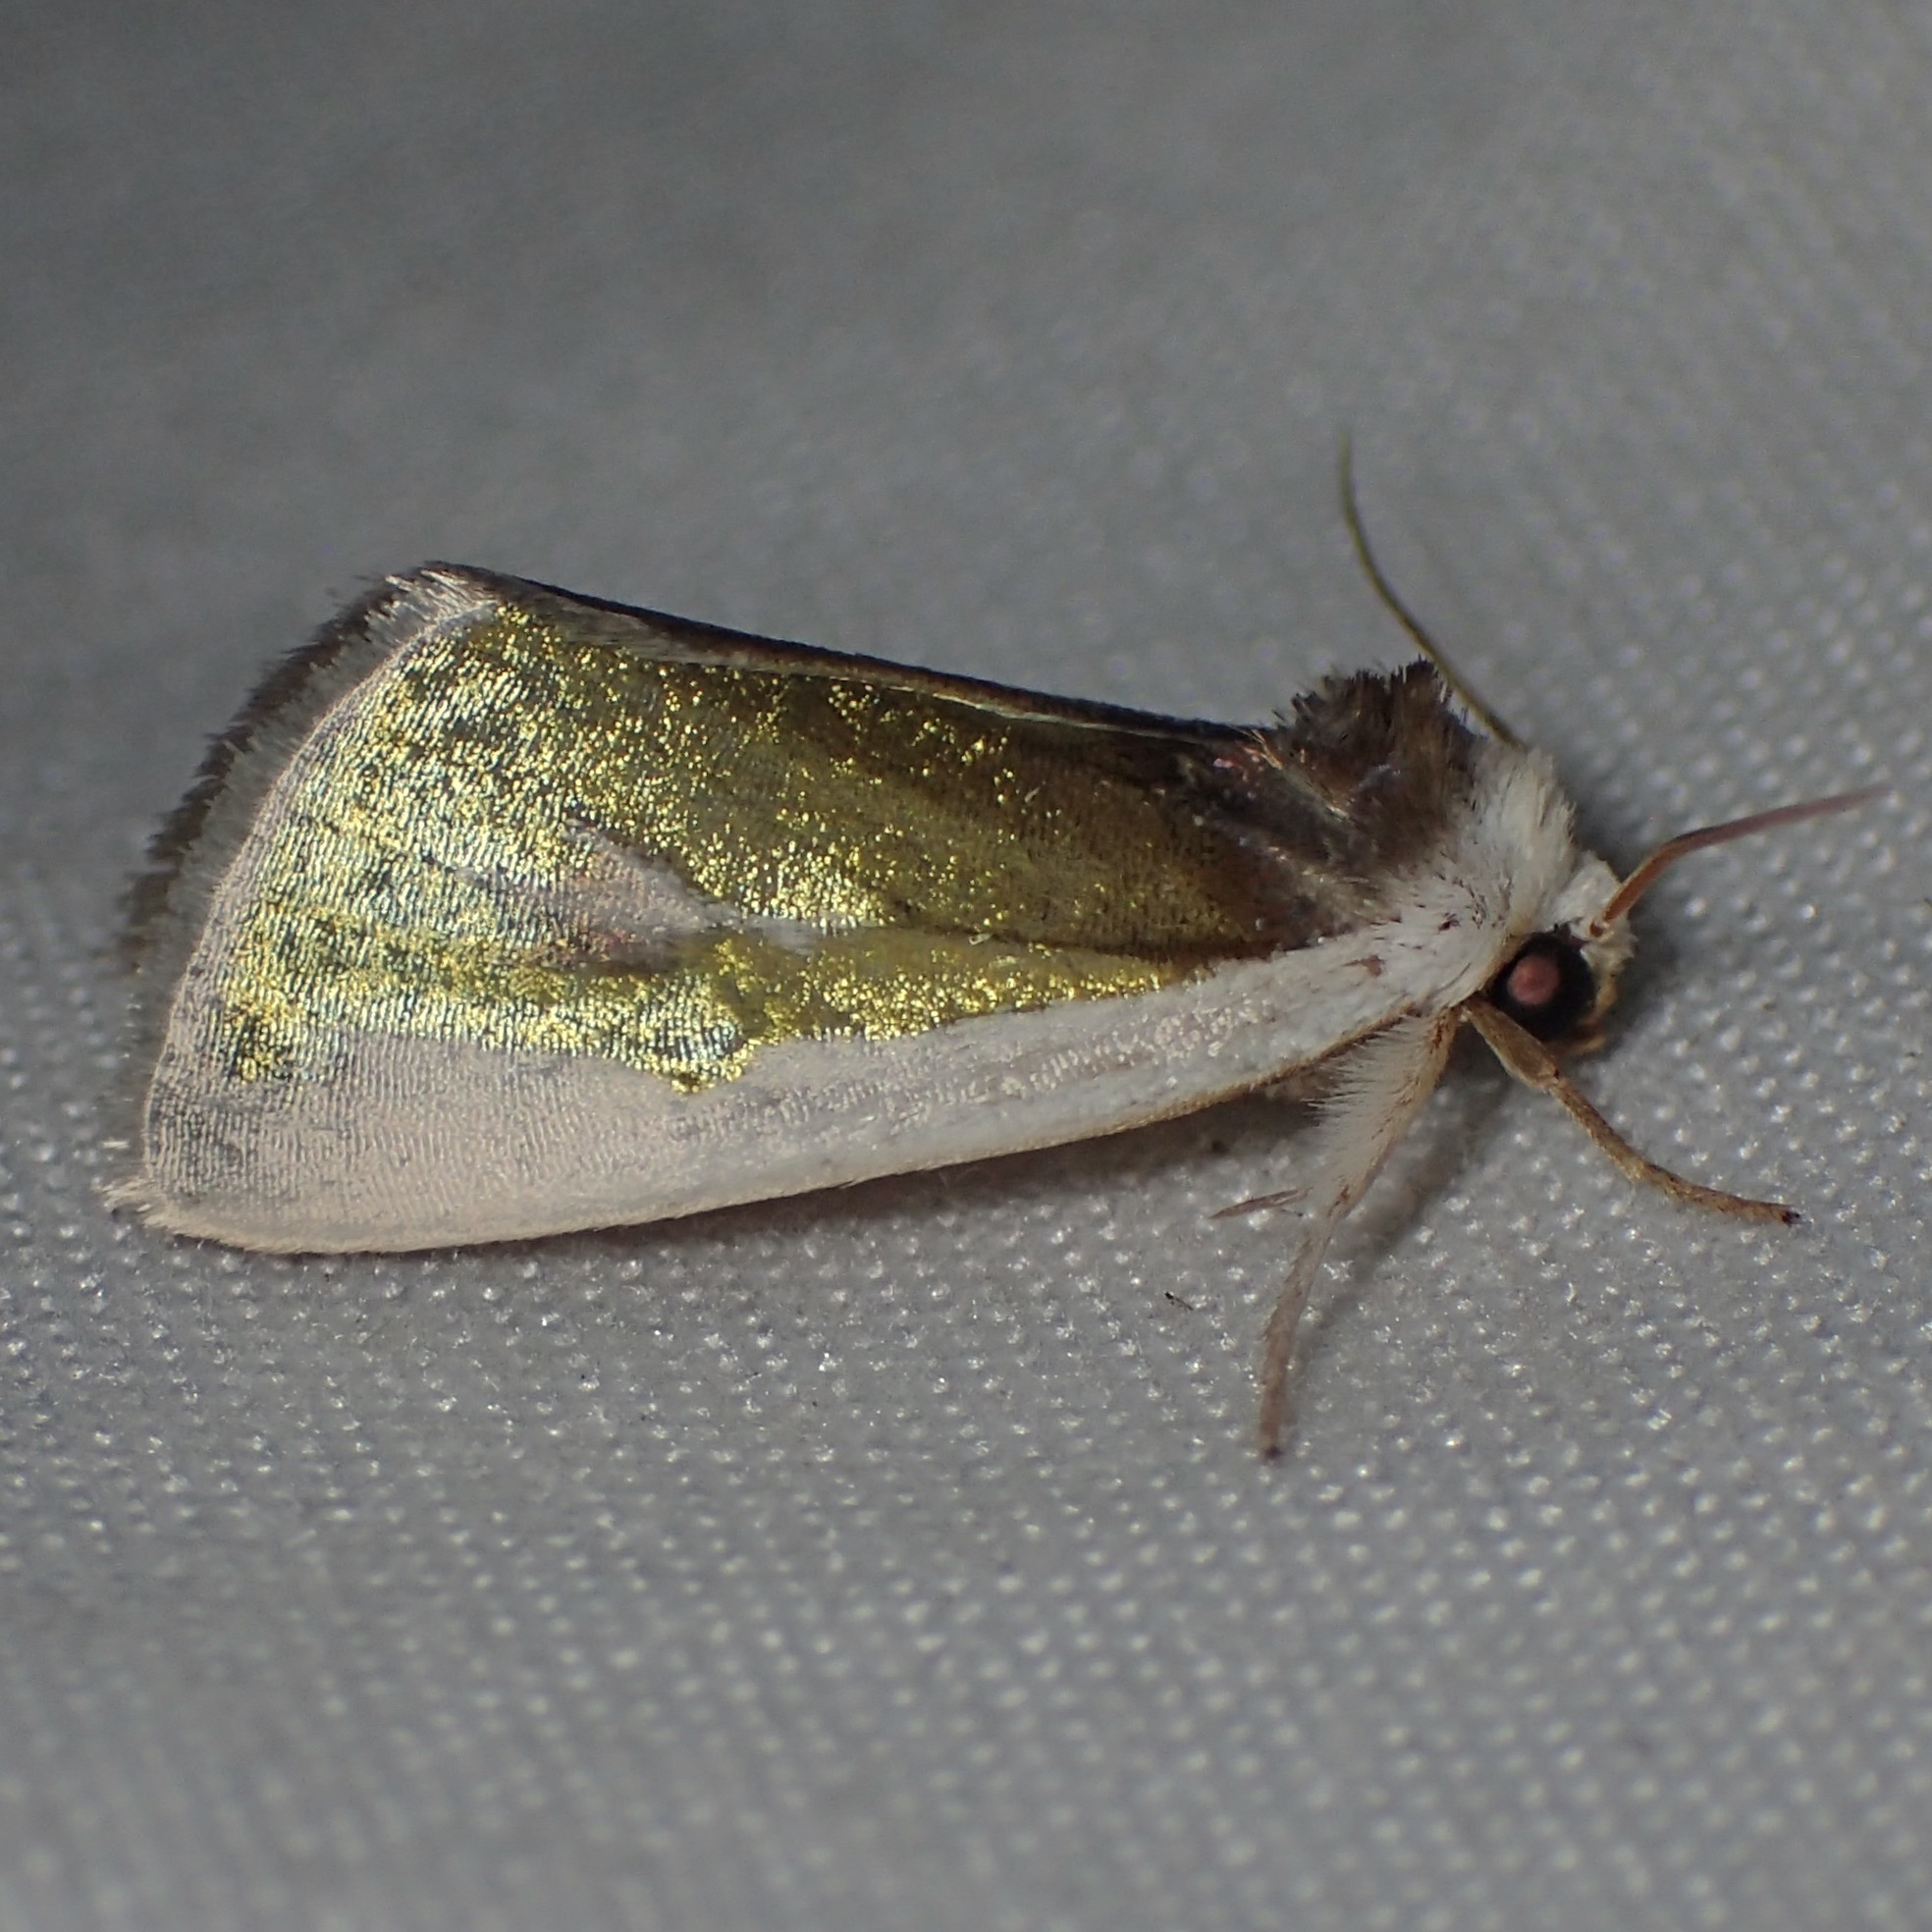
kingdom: Animalia
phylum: Arthropoda
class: Insecta
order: Lepidoptera
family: Noctuidae
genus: Neumoegenia
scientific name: Neumoegenia poetica
